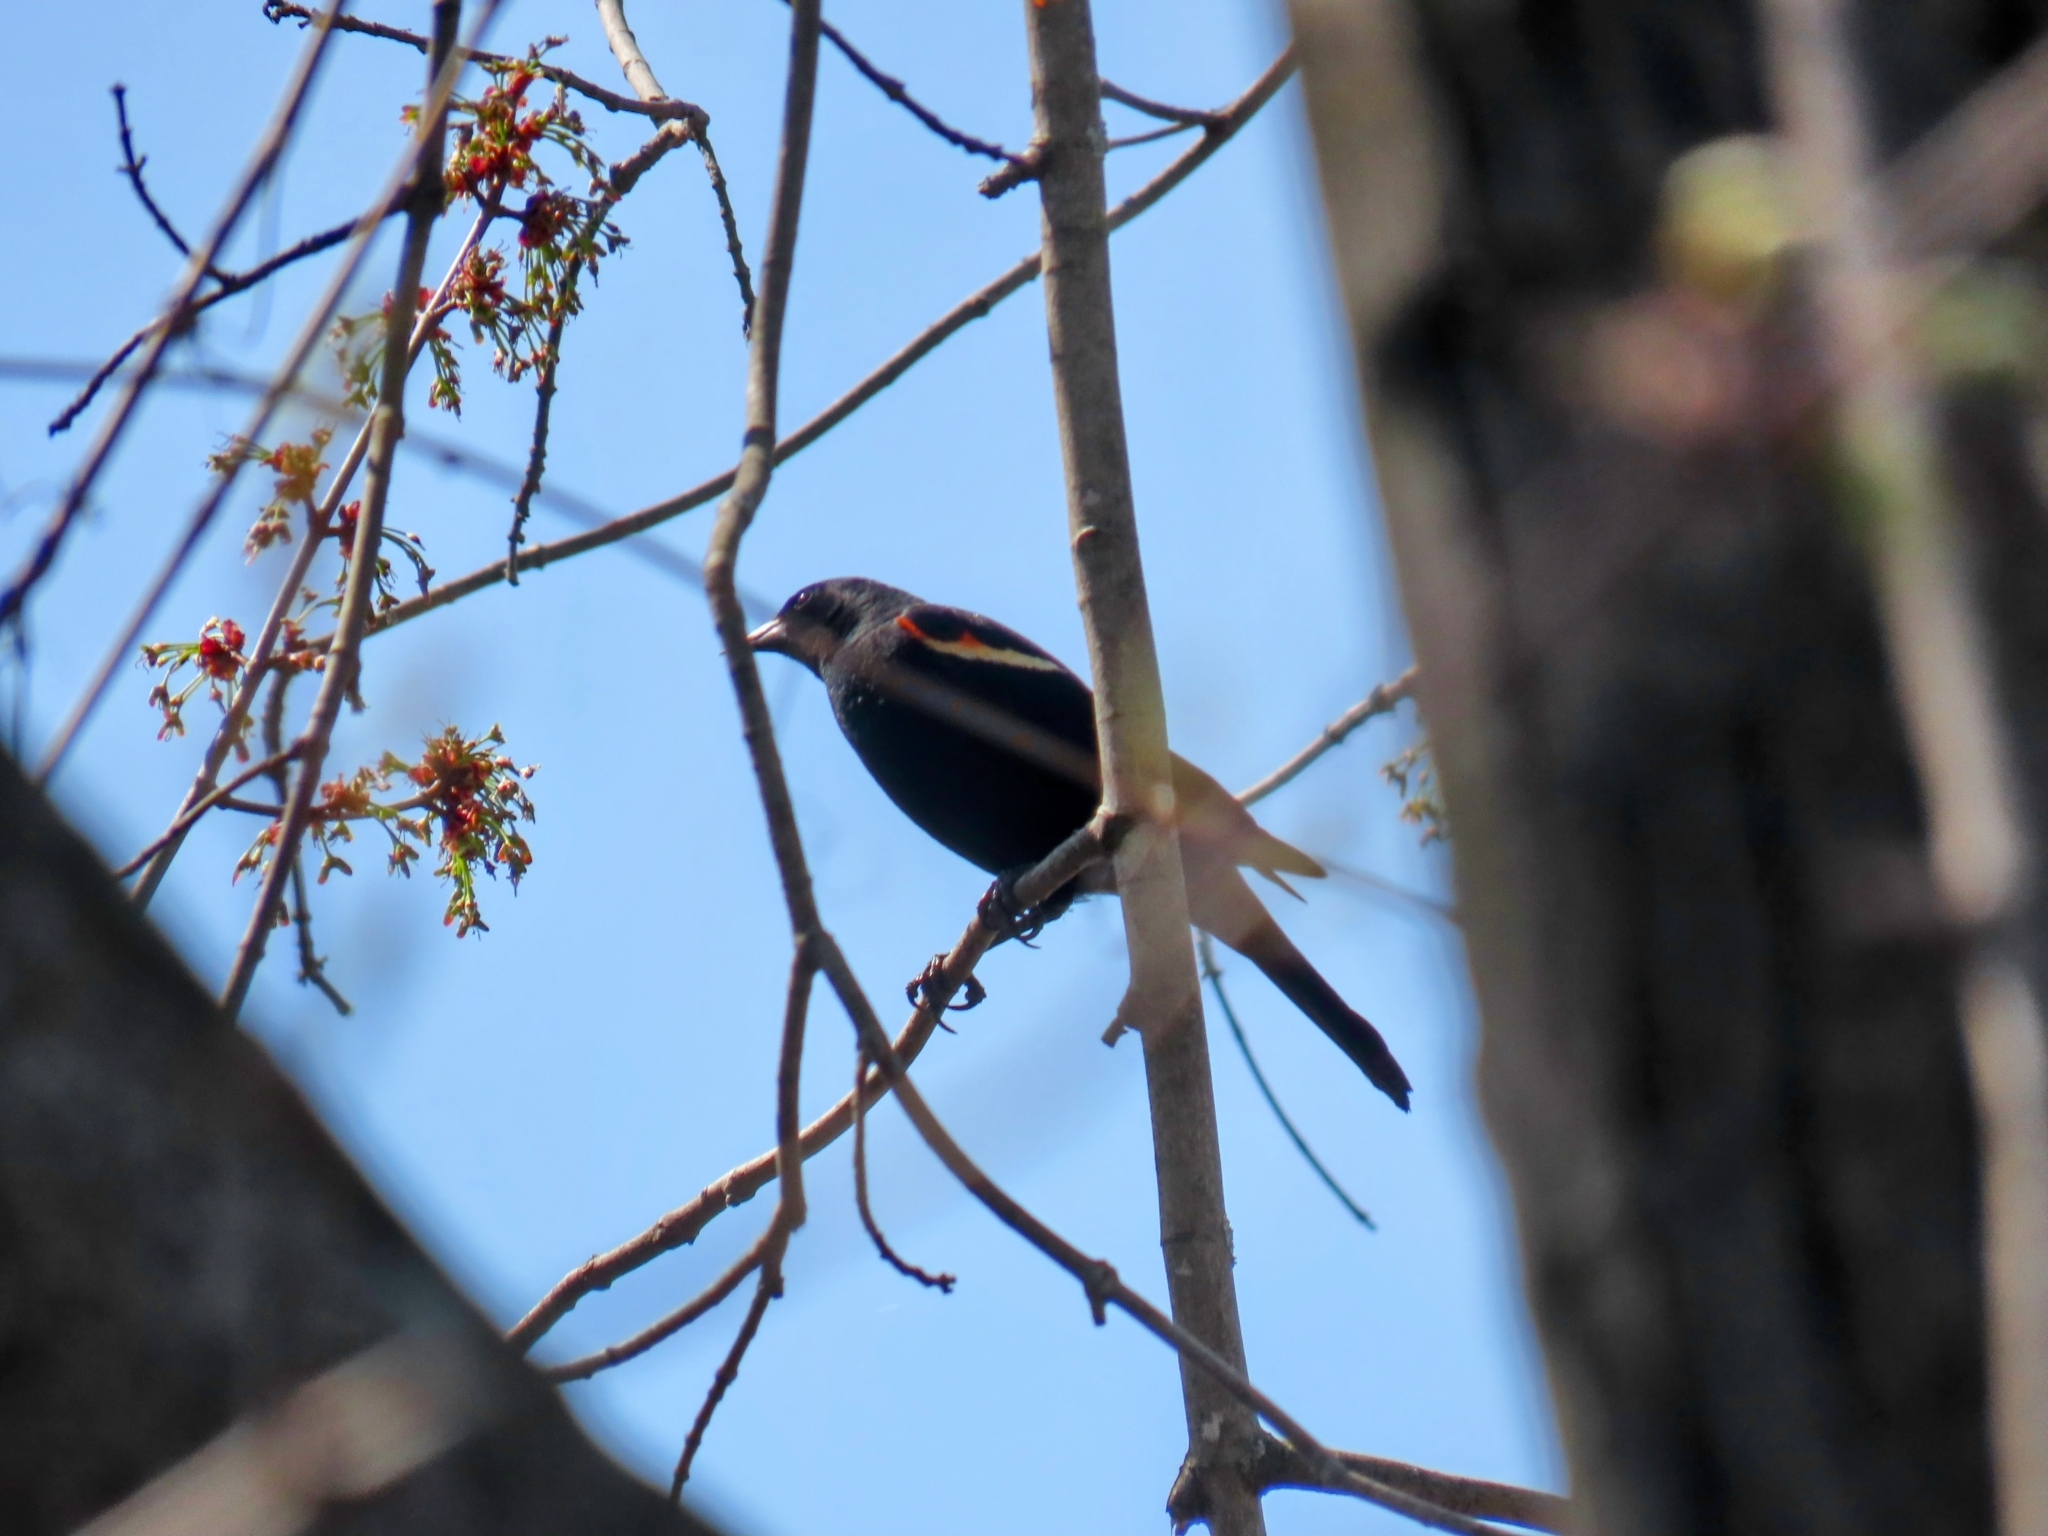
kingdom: Animalia
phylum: Chordata
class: Aves
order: Passeriformes
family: Icteridae
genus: Agelaius
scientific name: Agelaius phoeniceus
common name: Red-winged blackbird
